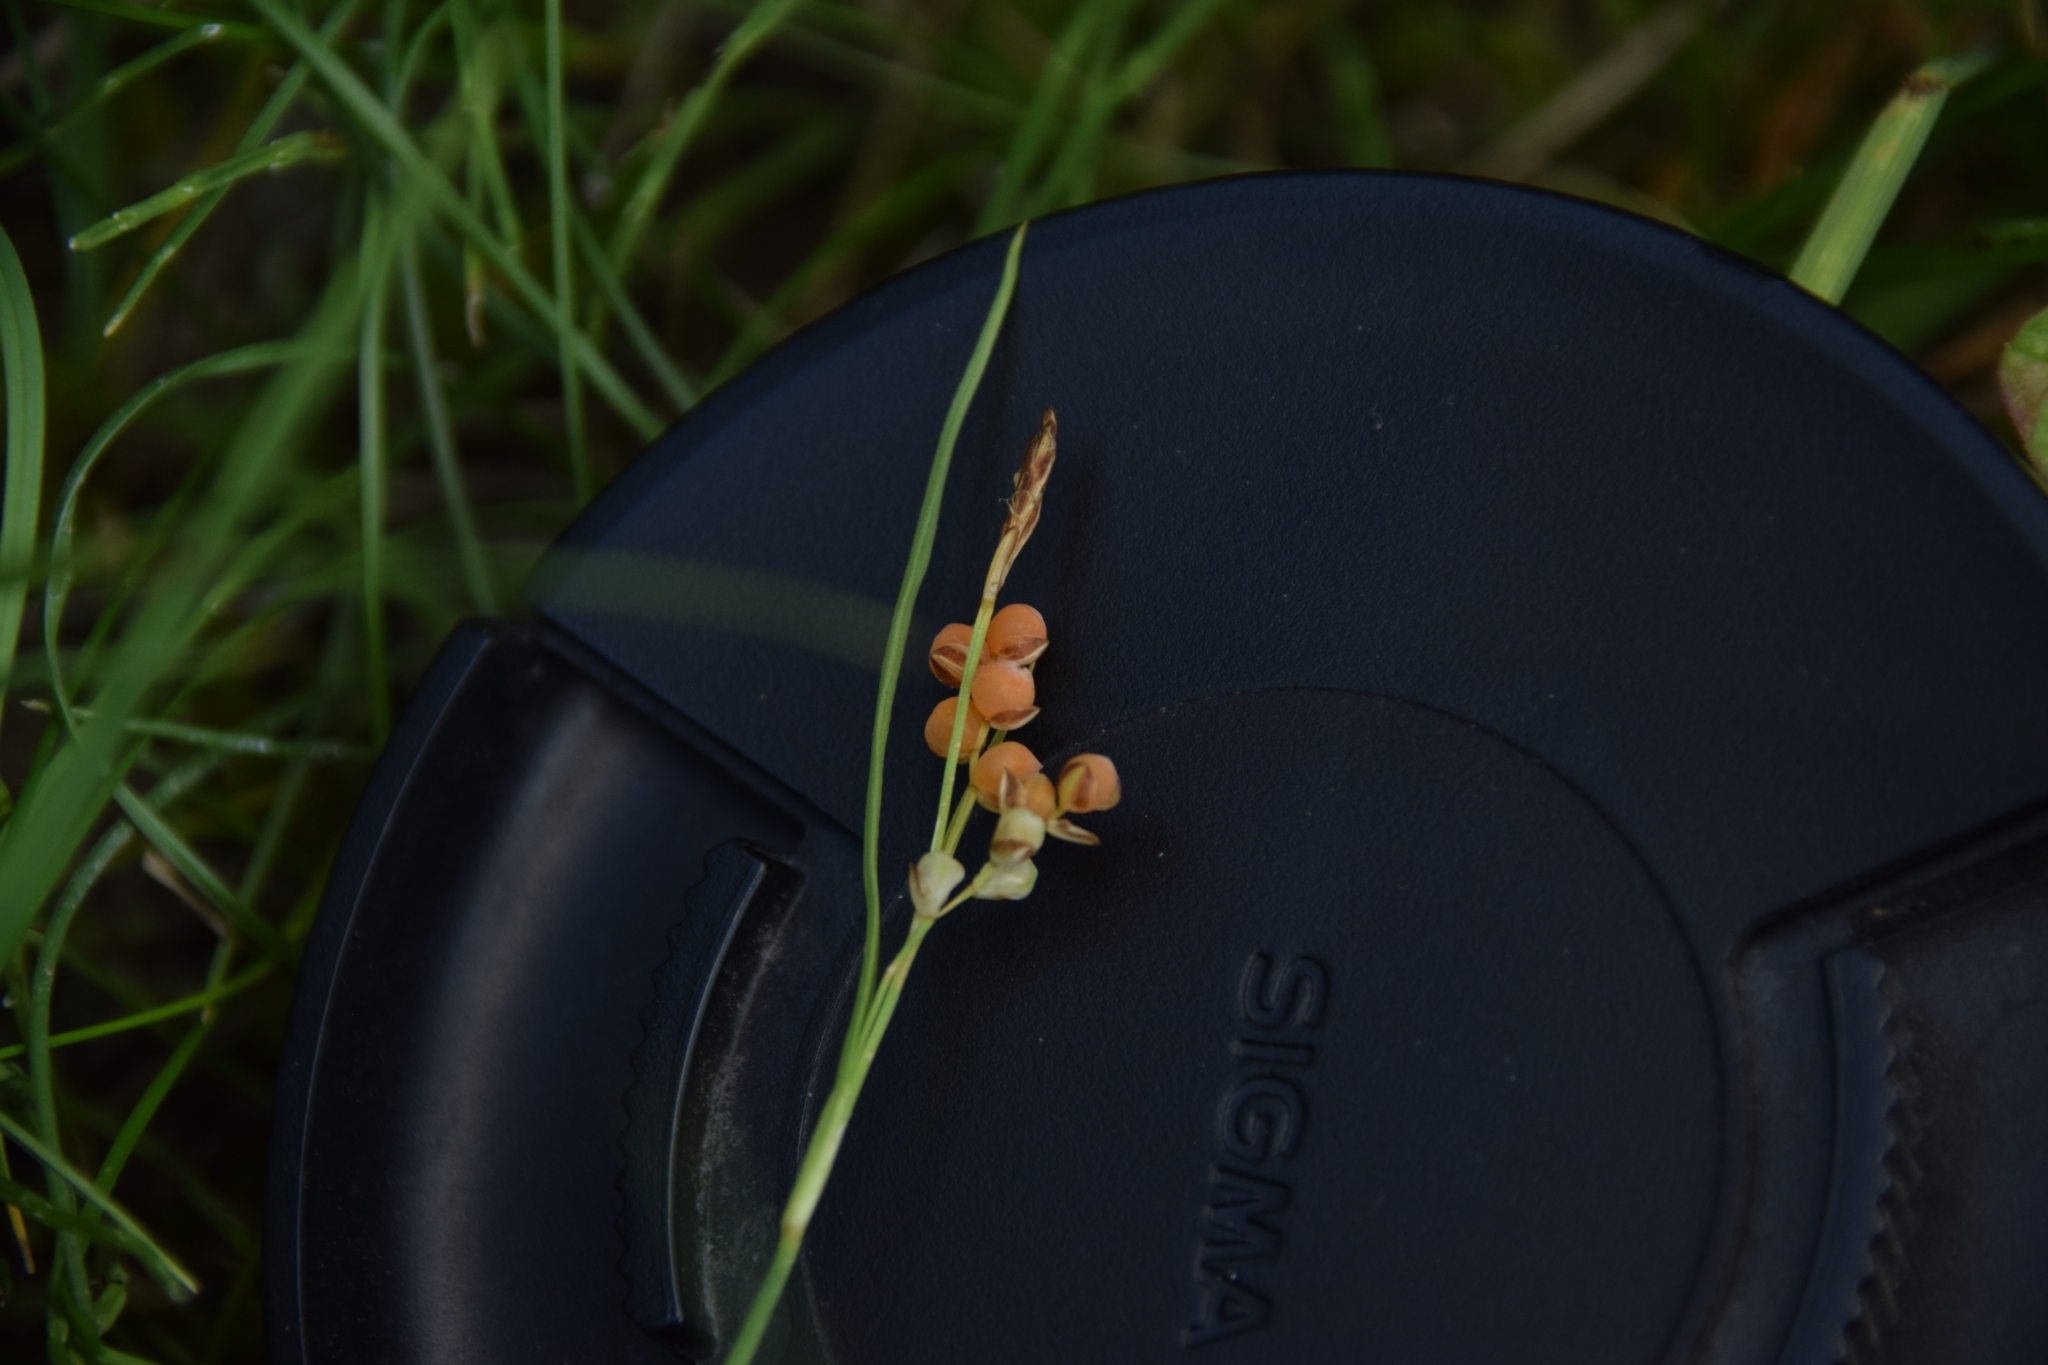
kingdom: Plantae
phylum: Tracheophyta
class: Liliopsida
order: Poales
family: Cyperaceae
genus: Carex
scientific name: Carex aurea
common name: Golden sedge
